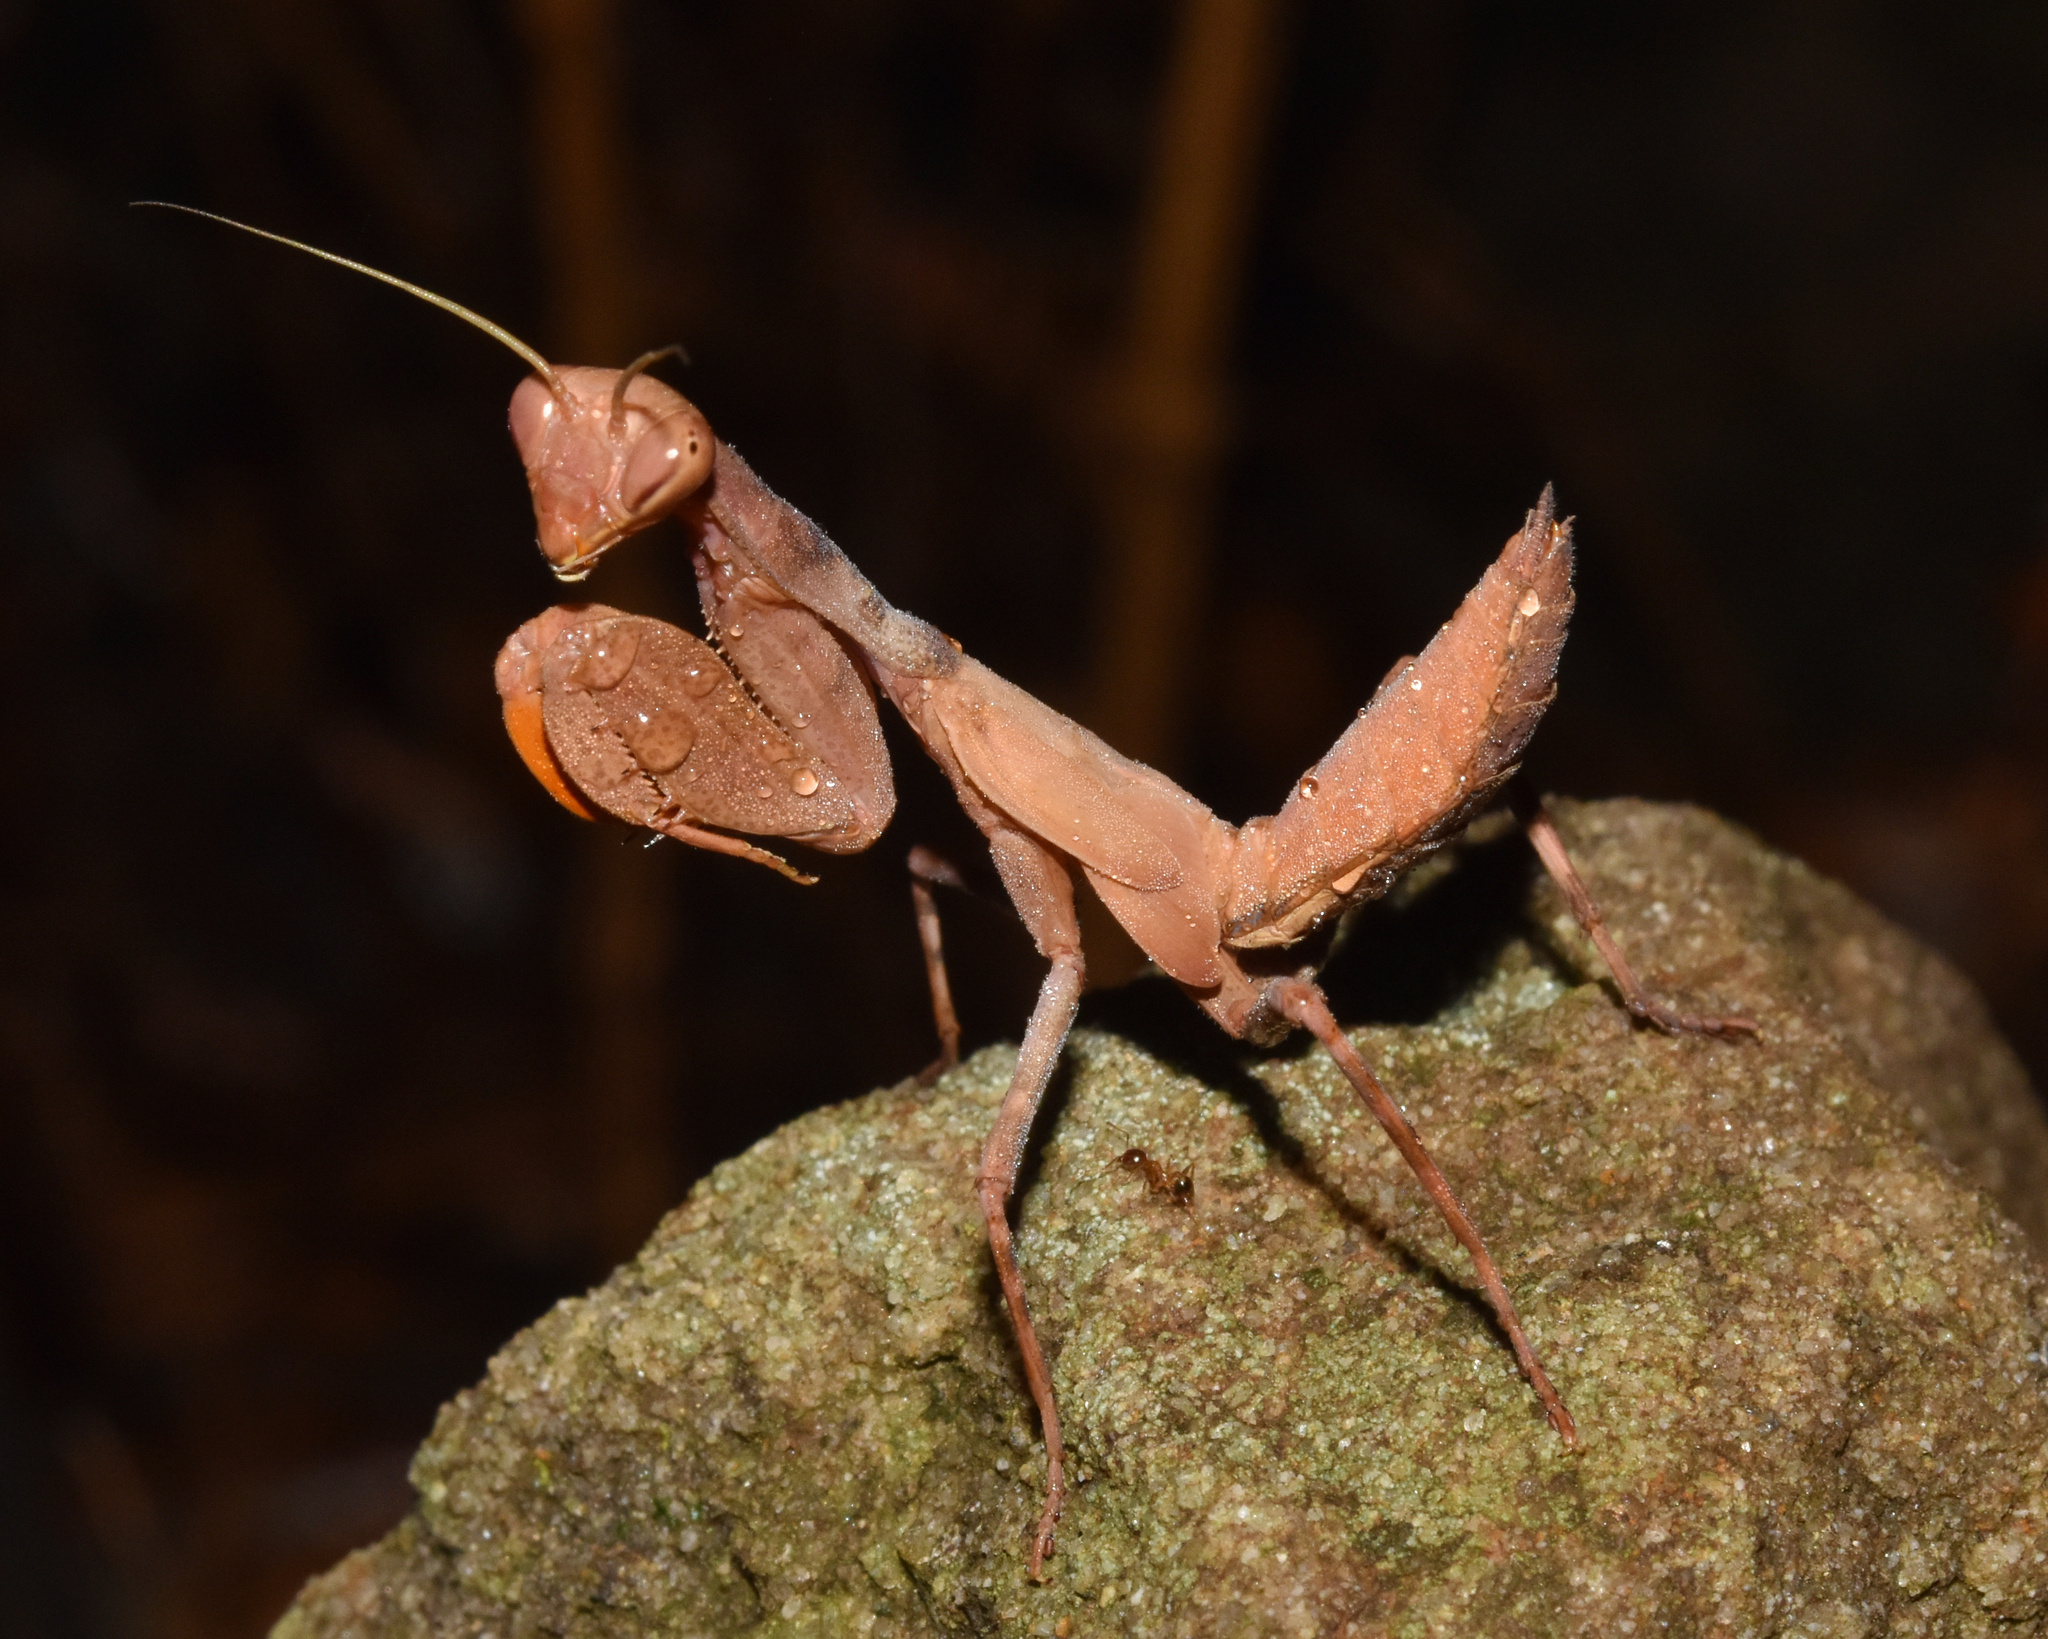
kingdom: Animalia
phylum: Arthropoda
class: Insecta
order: Mantodea
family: Miomantidae
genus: Cilnia
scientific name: Cilnia humeralis
